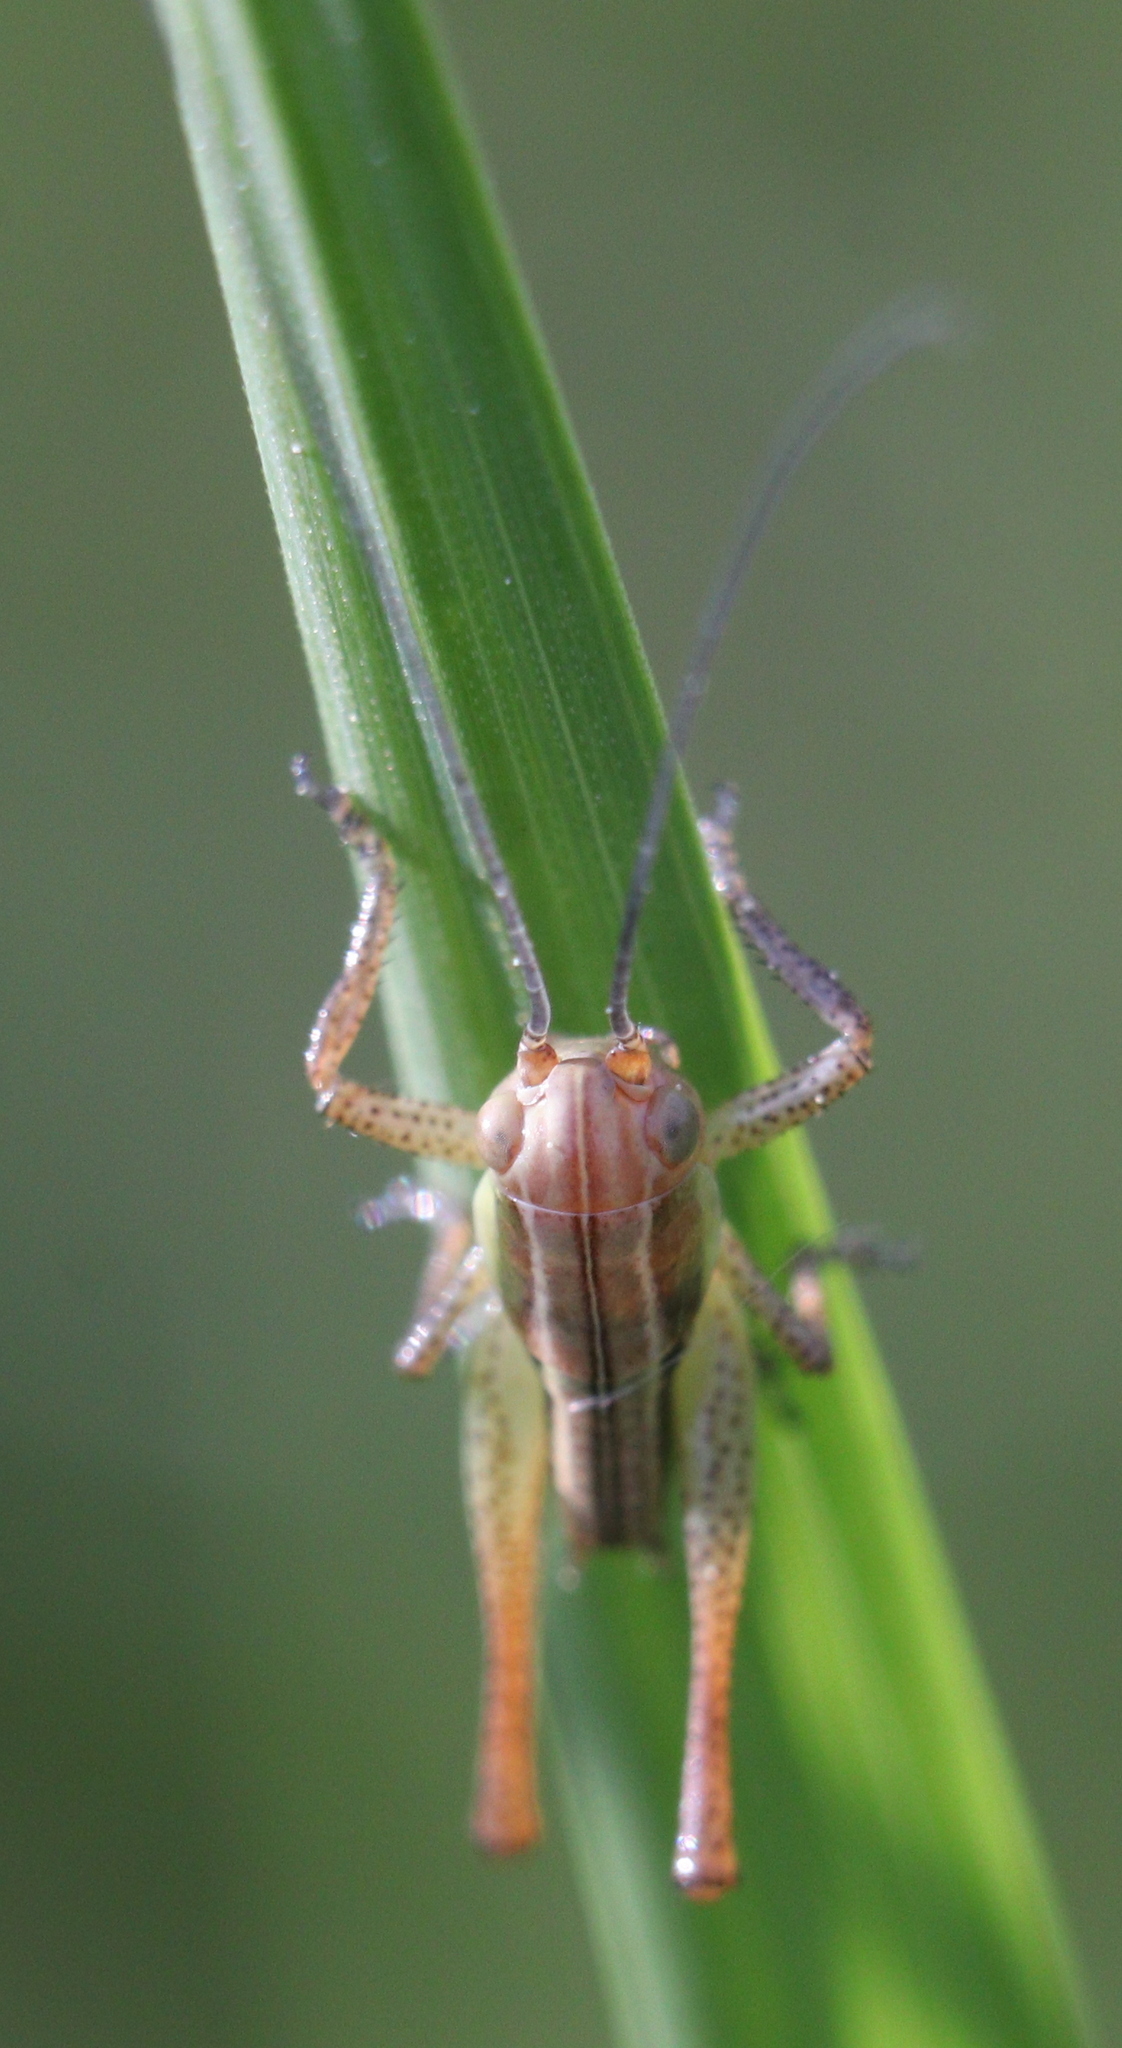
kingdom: Animalia
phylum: Arthropoda
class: Insecta
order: Orthoptera
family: Tettigoniidae
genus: Roeseliana
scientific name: Roeseliana roeselii
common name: Roesel's bush cricket
